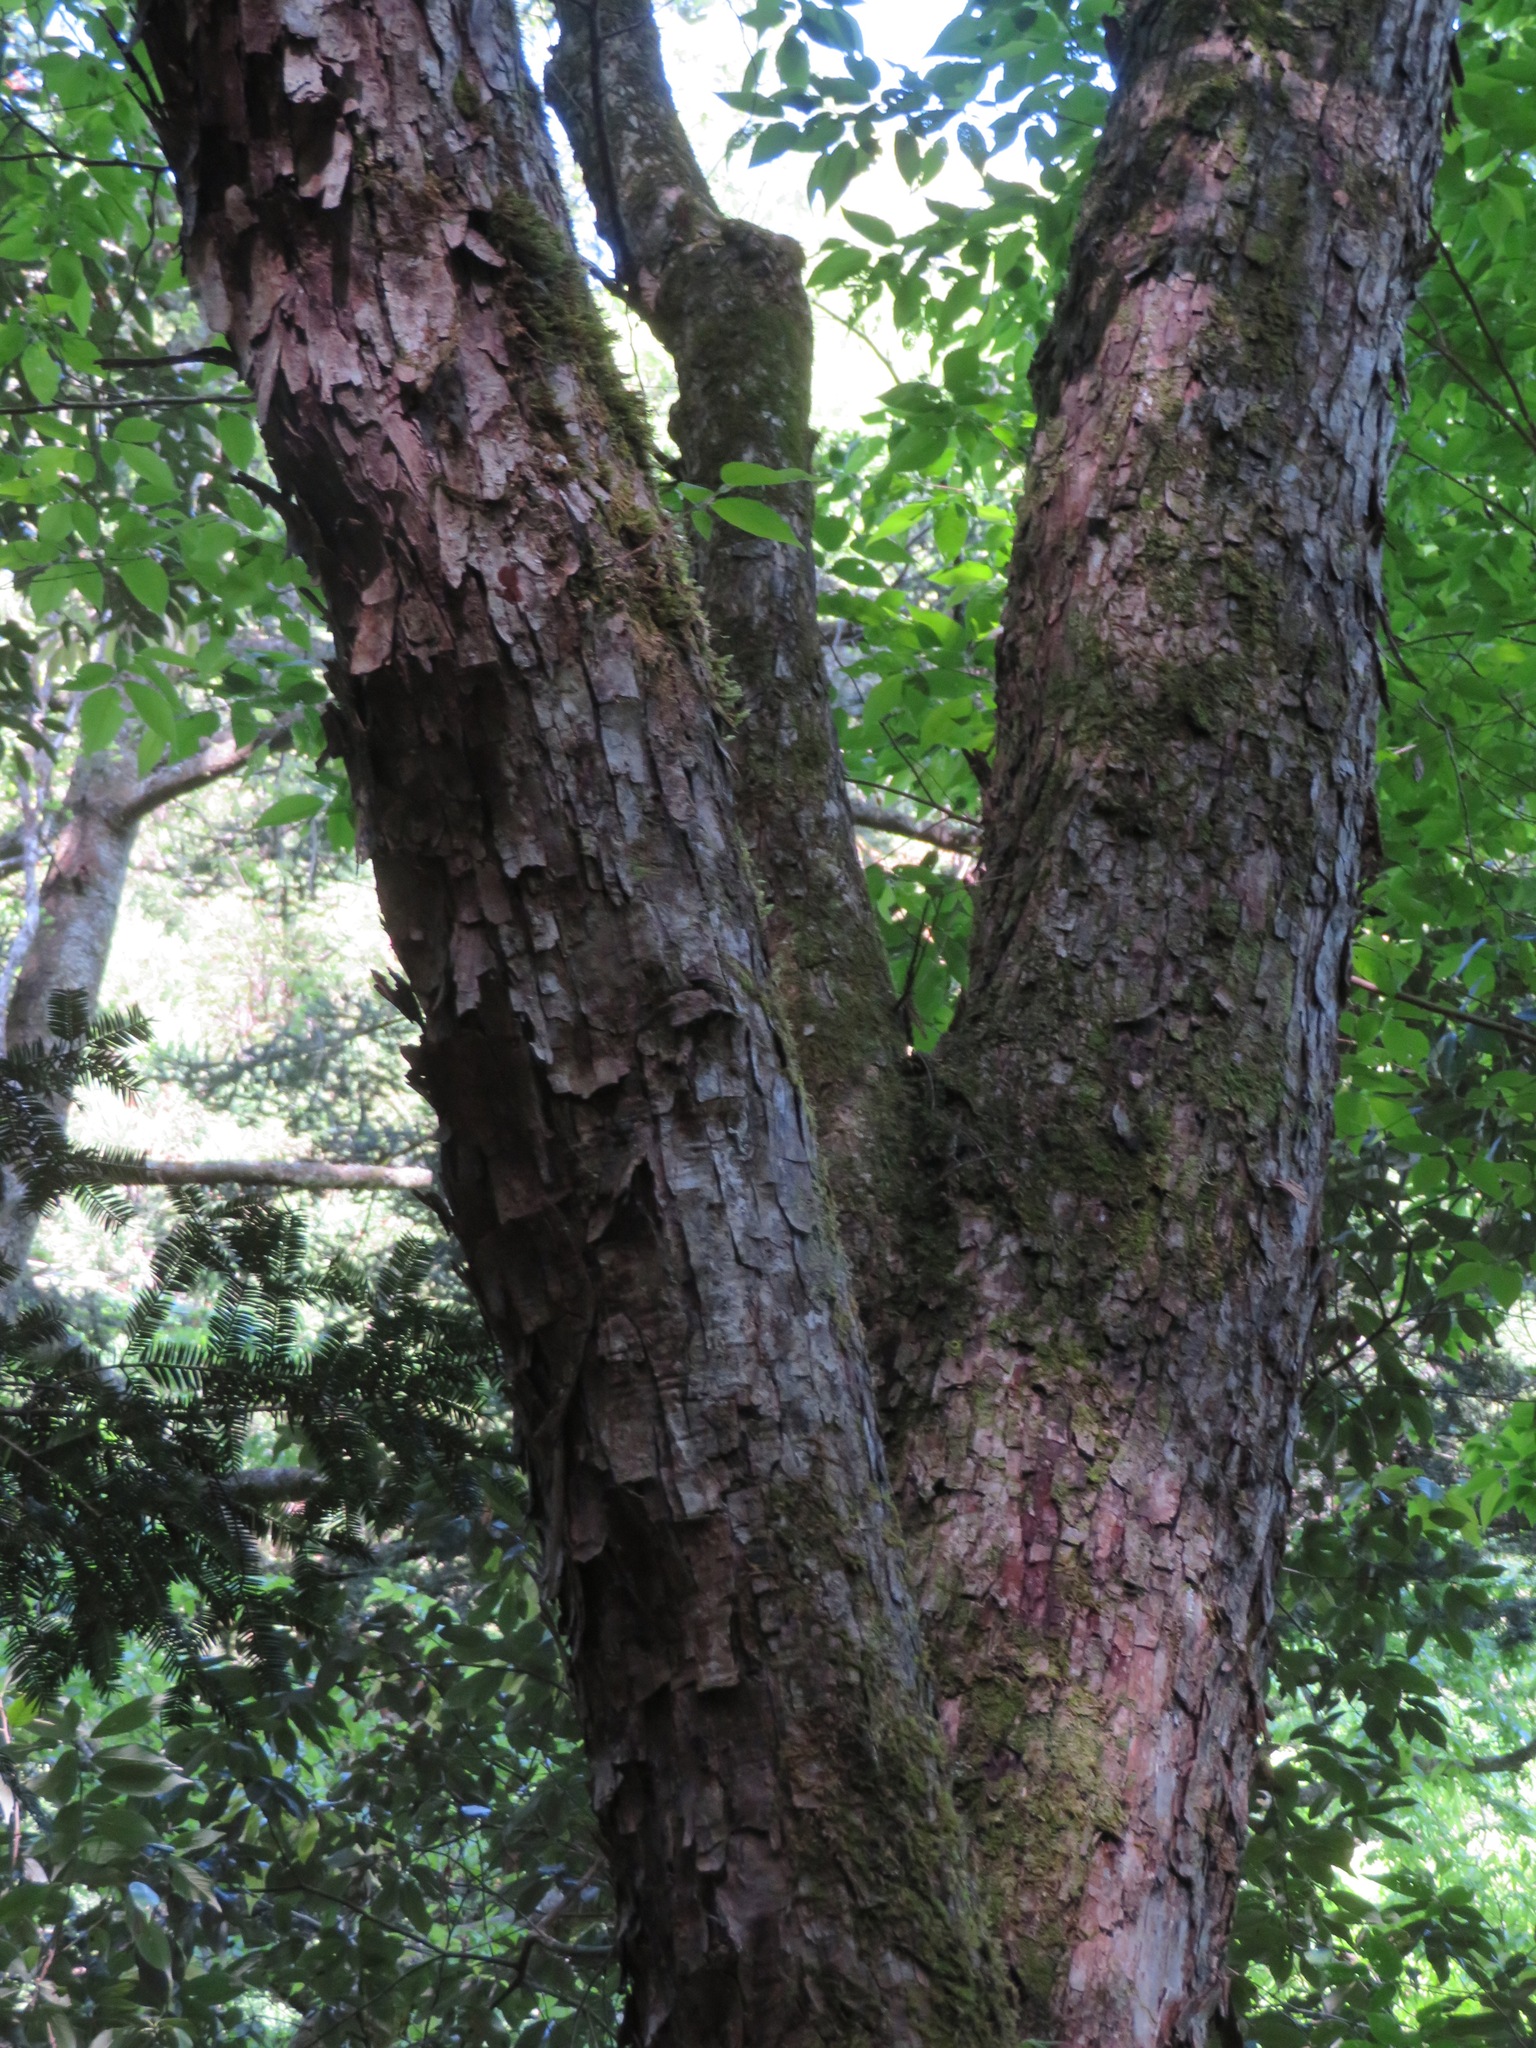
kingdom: Plantae
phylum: Tracheophyta
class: Magnoliopsida
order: Fagales
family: Betulaceae
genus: Ostrya
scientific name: Ostrya japonica
